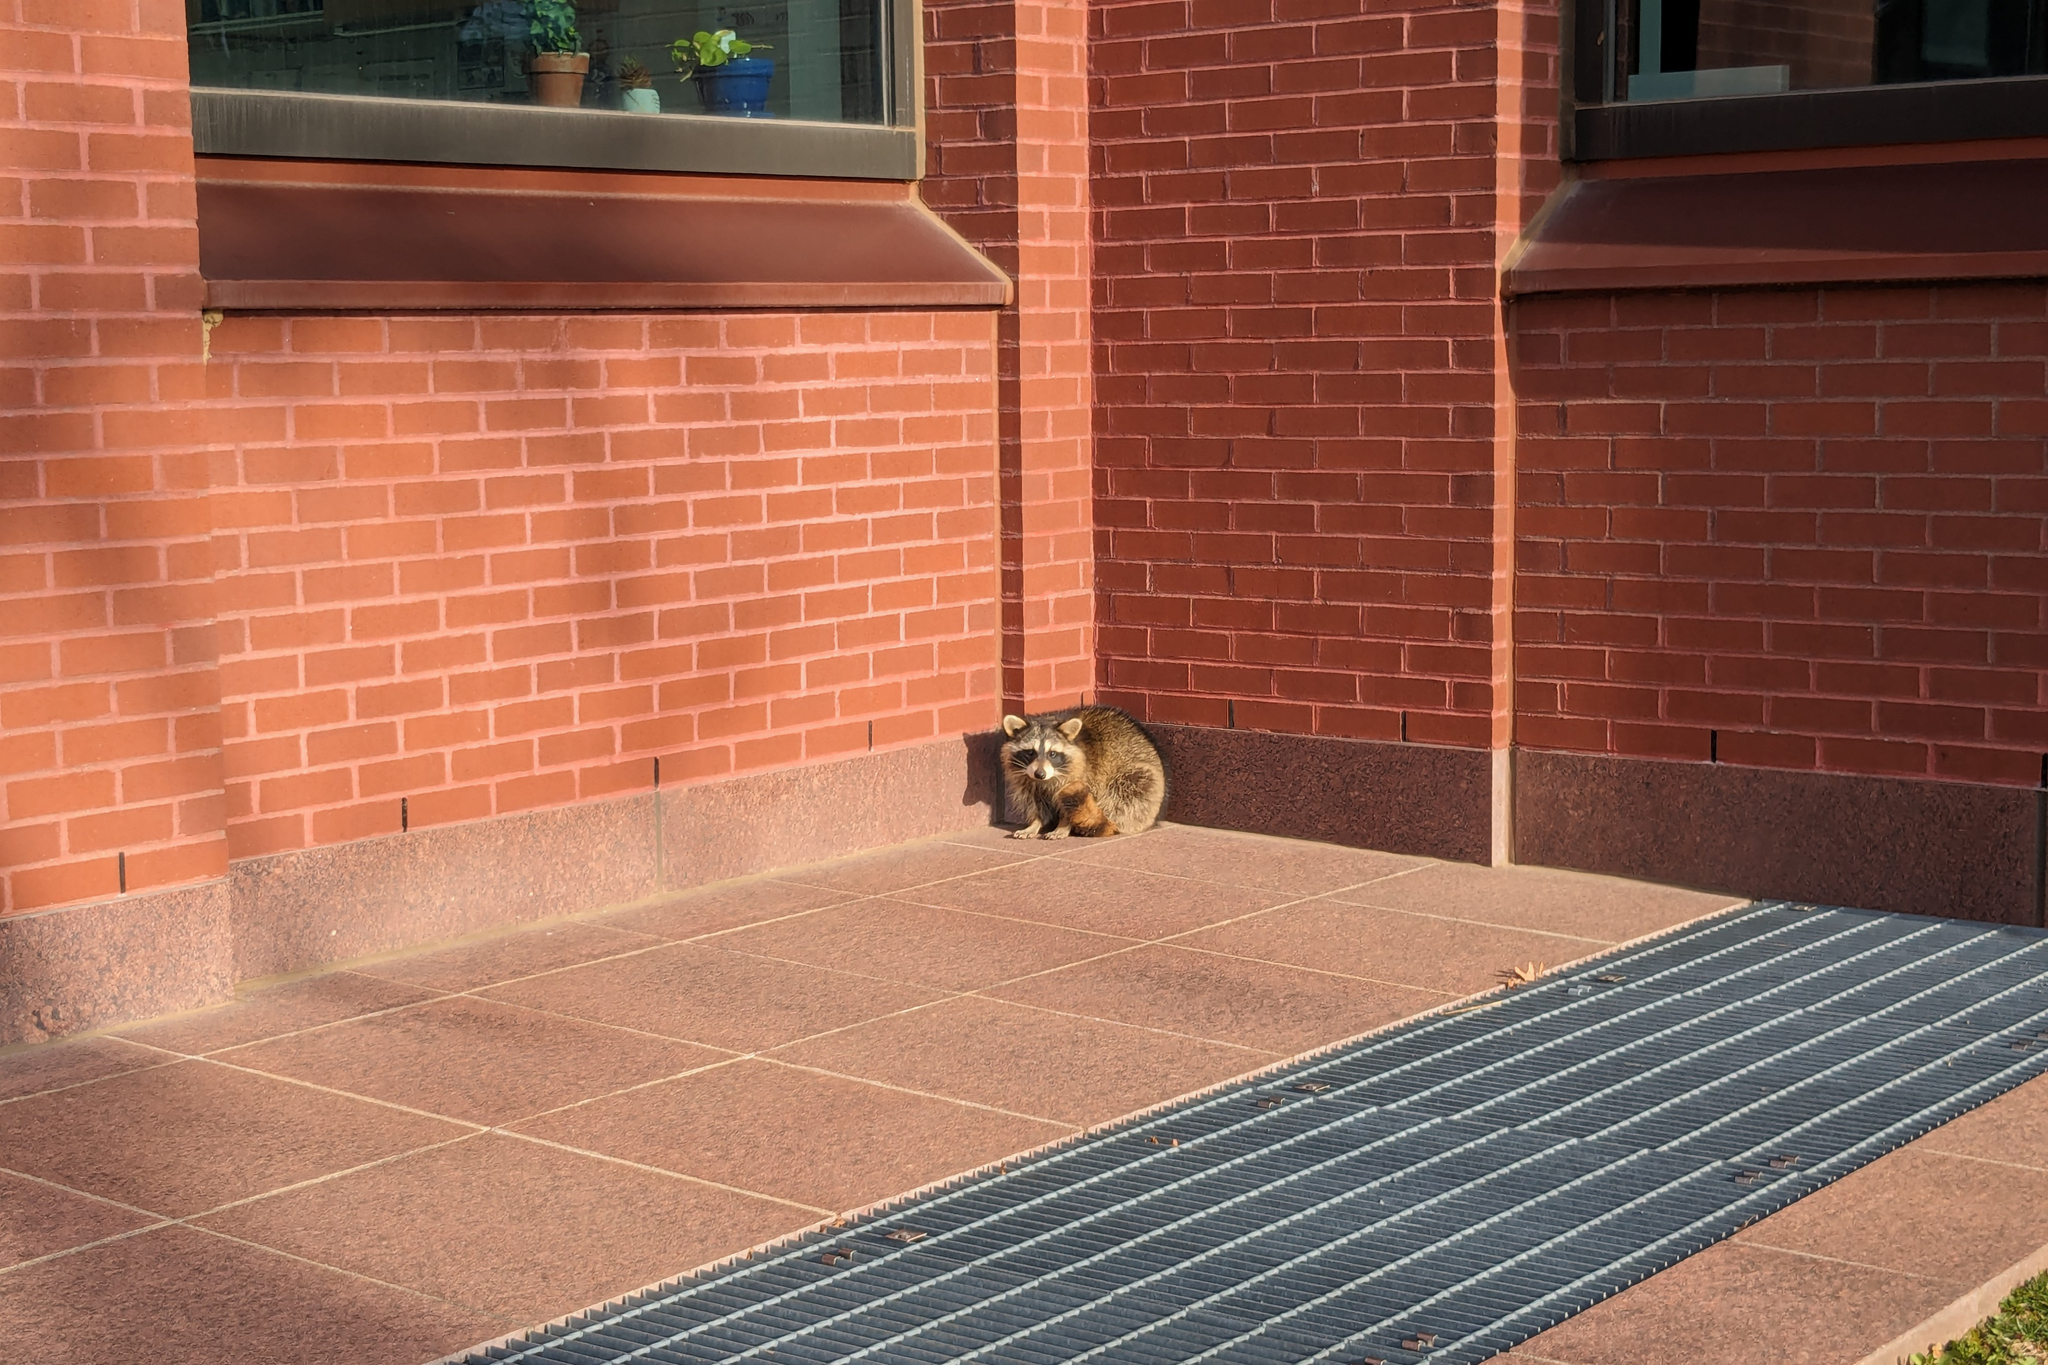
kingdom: Animalia
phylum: Chordata
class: Mammalia
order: Carnivora
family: Procyonidae
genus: Procyon
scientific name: Procyon lotor
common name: Raccoon
